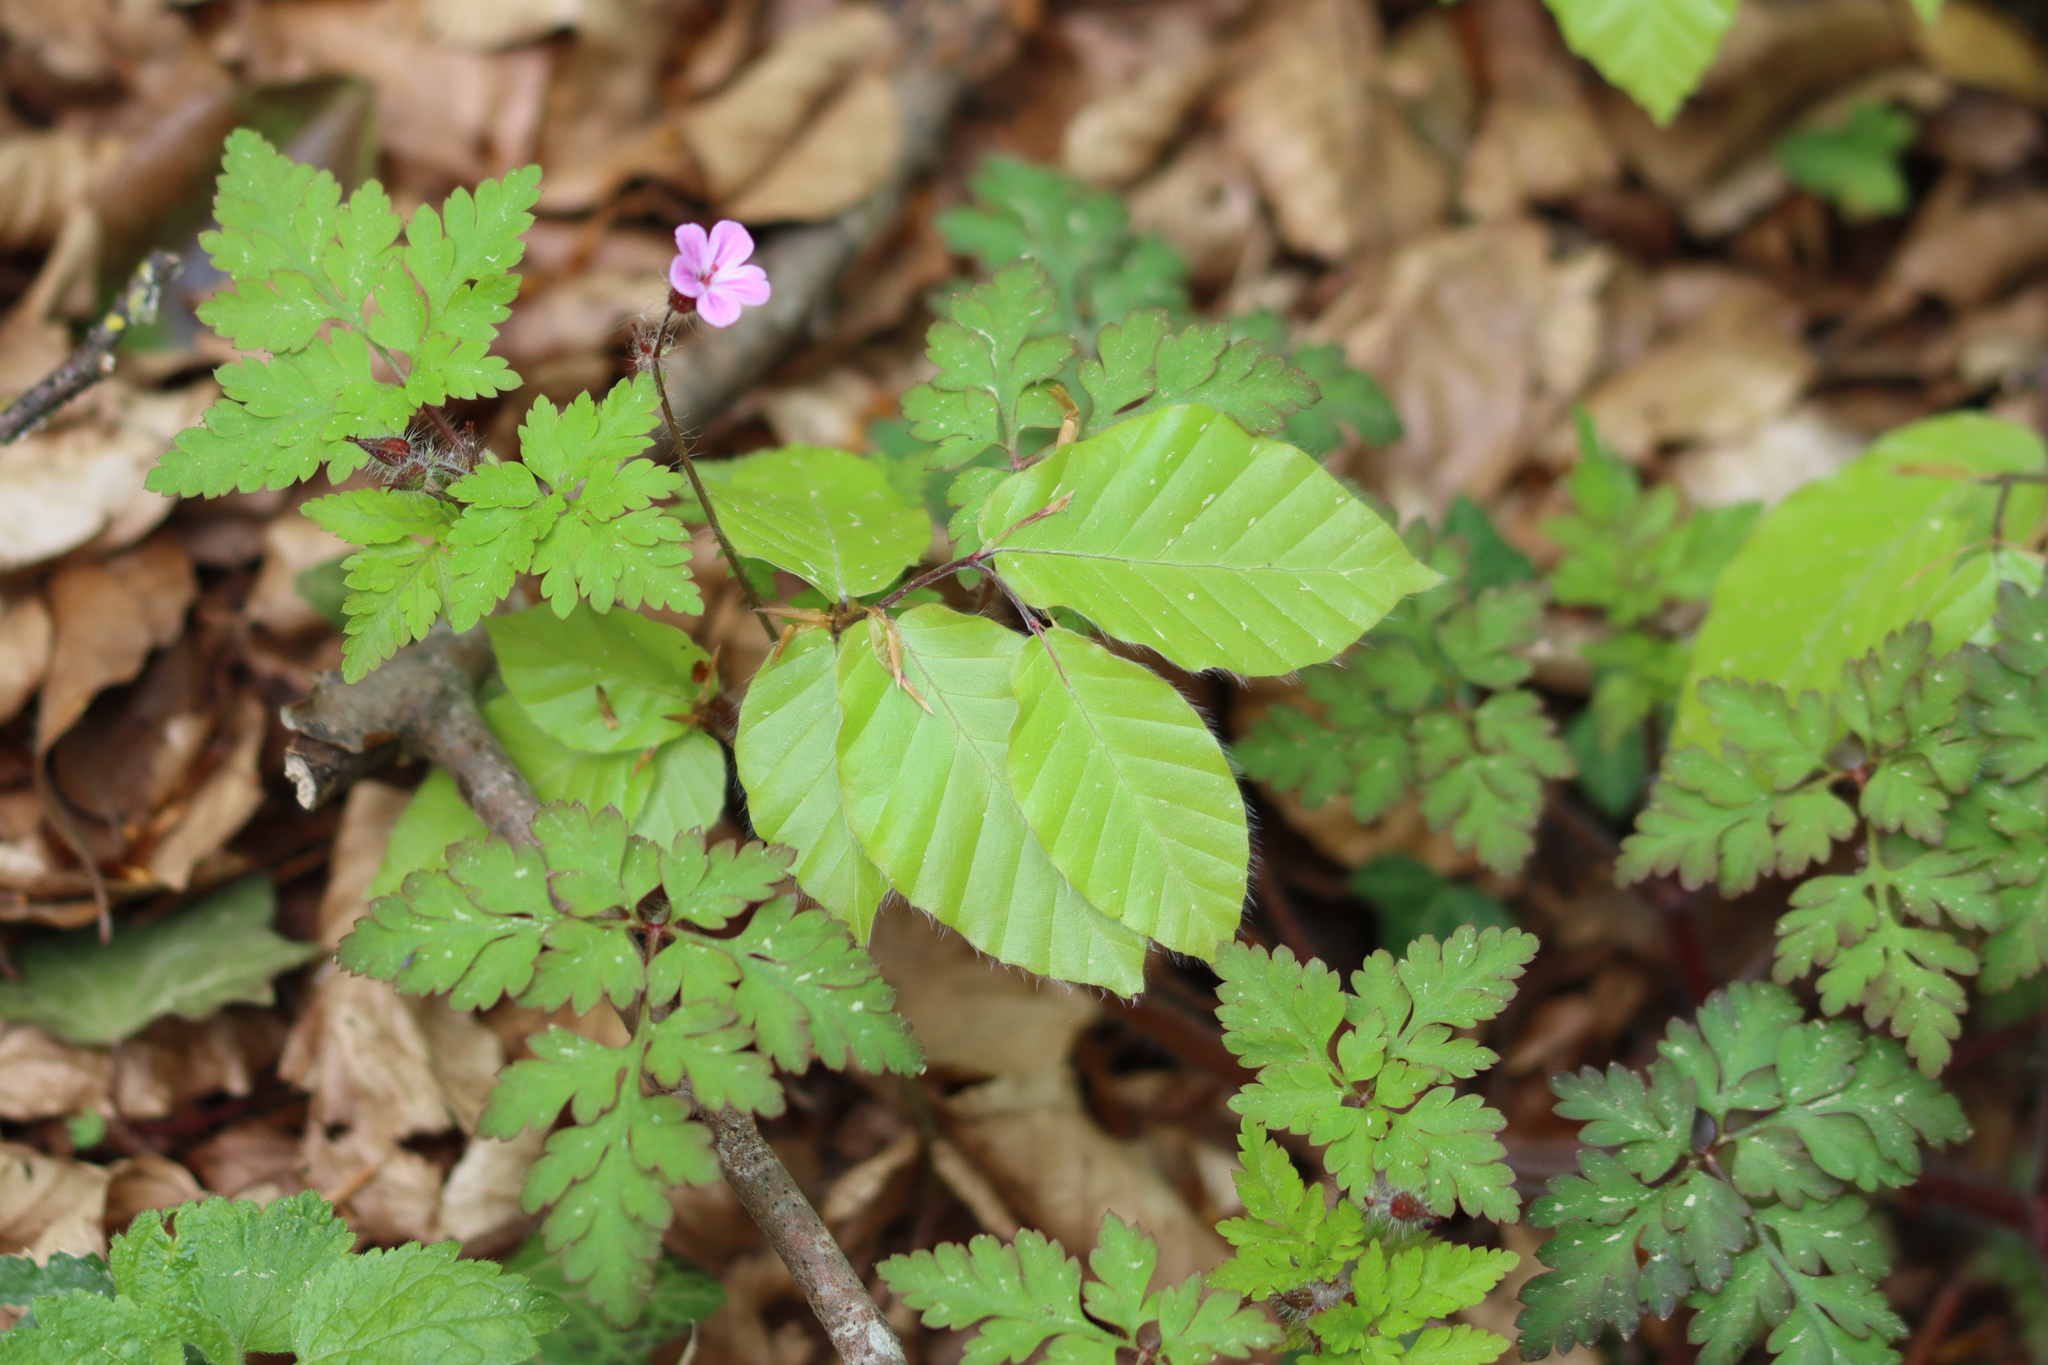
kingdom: Plantae
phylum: Tracheophyta
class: Magnoliopsida
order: Geraniales
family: Geraniaceae
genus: Geranium
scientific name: Geranium robertianum
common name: Herb-robert
